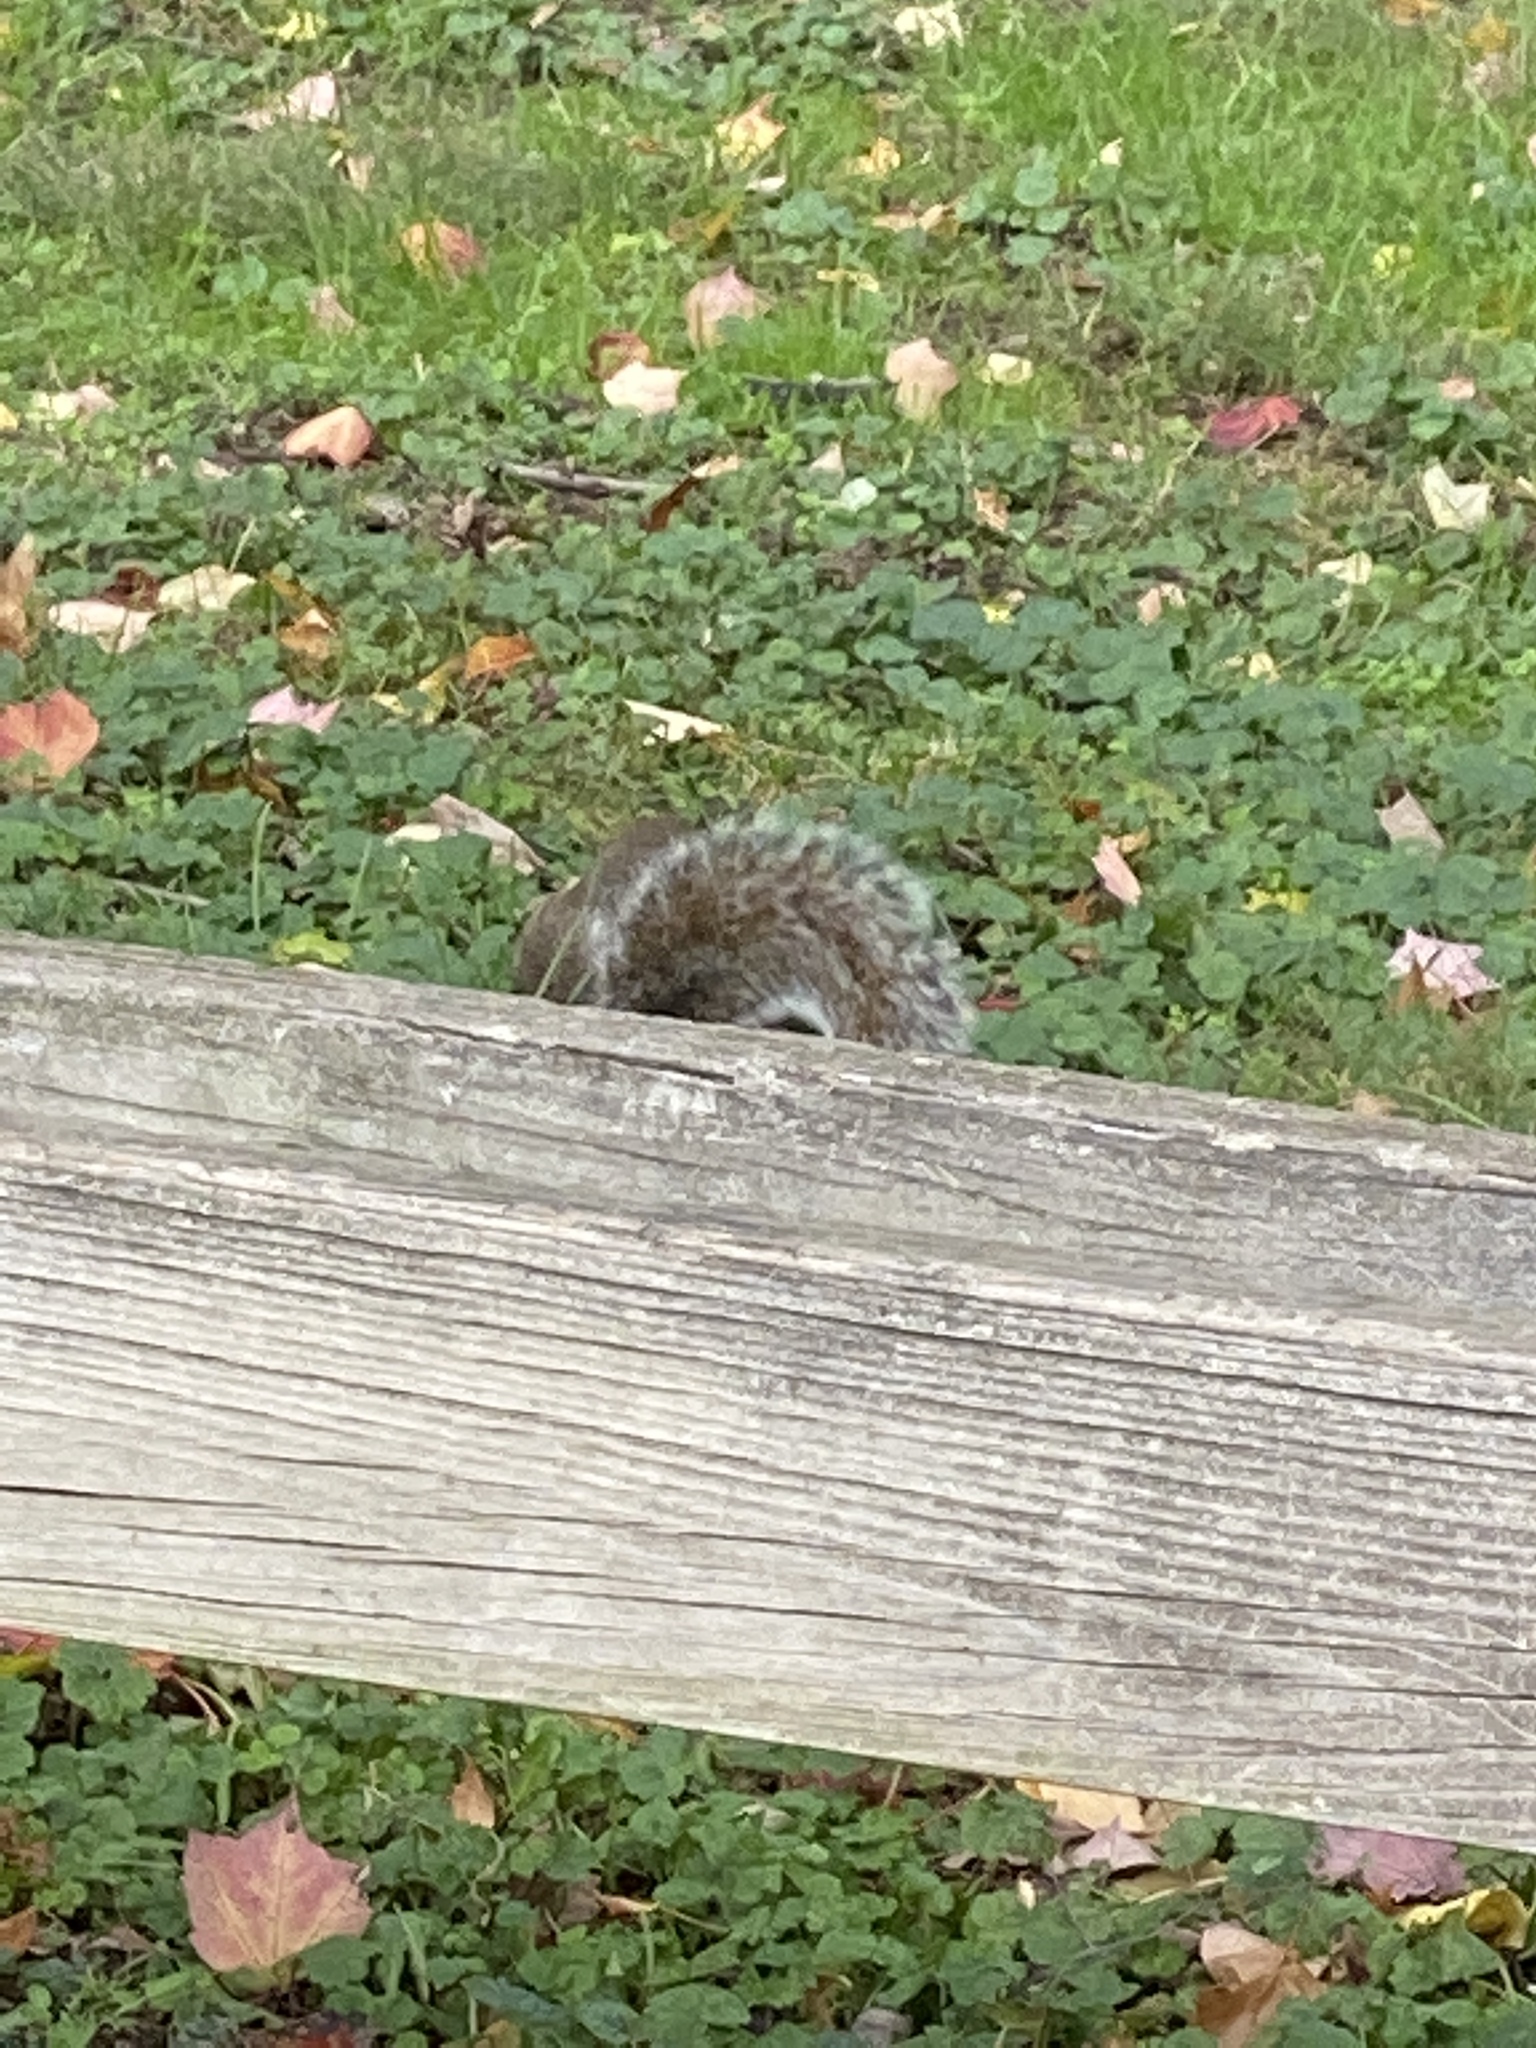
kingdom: Animalia
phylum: Chordata
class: Mammalia
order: Rodentia
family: Sciuridae
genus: Sciurus
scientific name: Sciurus carolinensis
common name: Eastern gray squirrel
